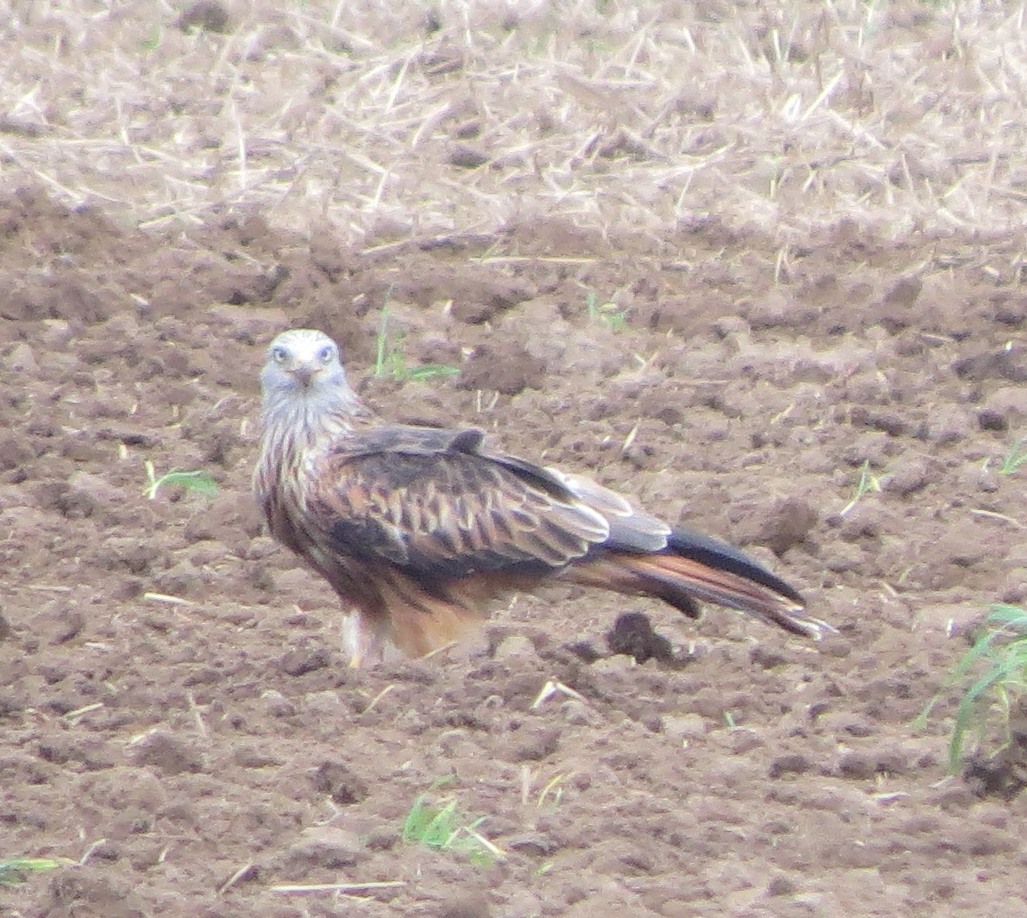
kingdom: Animalia
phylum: Chordata
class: Aves
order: Accipitriformes
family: Accipitridae
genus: Milvus
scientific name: Milvus milvus
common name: Red kite
